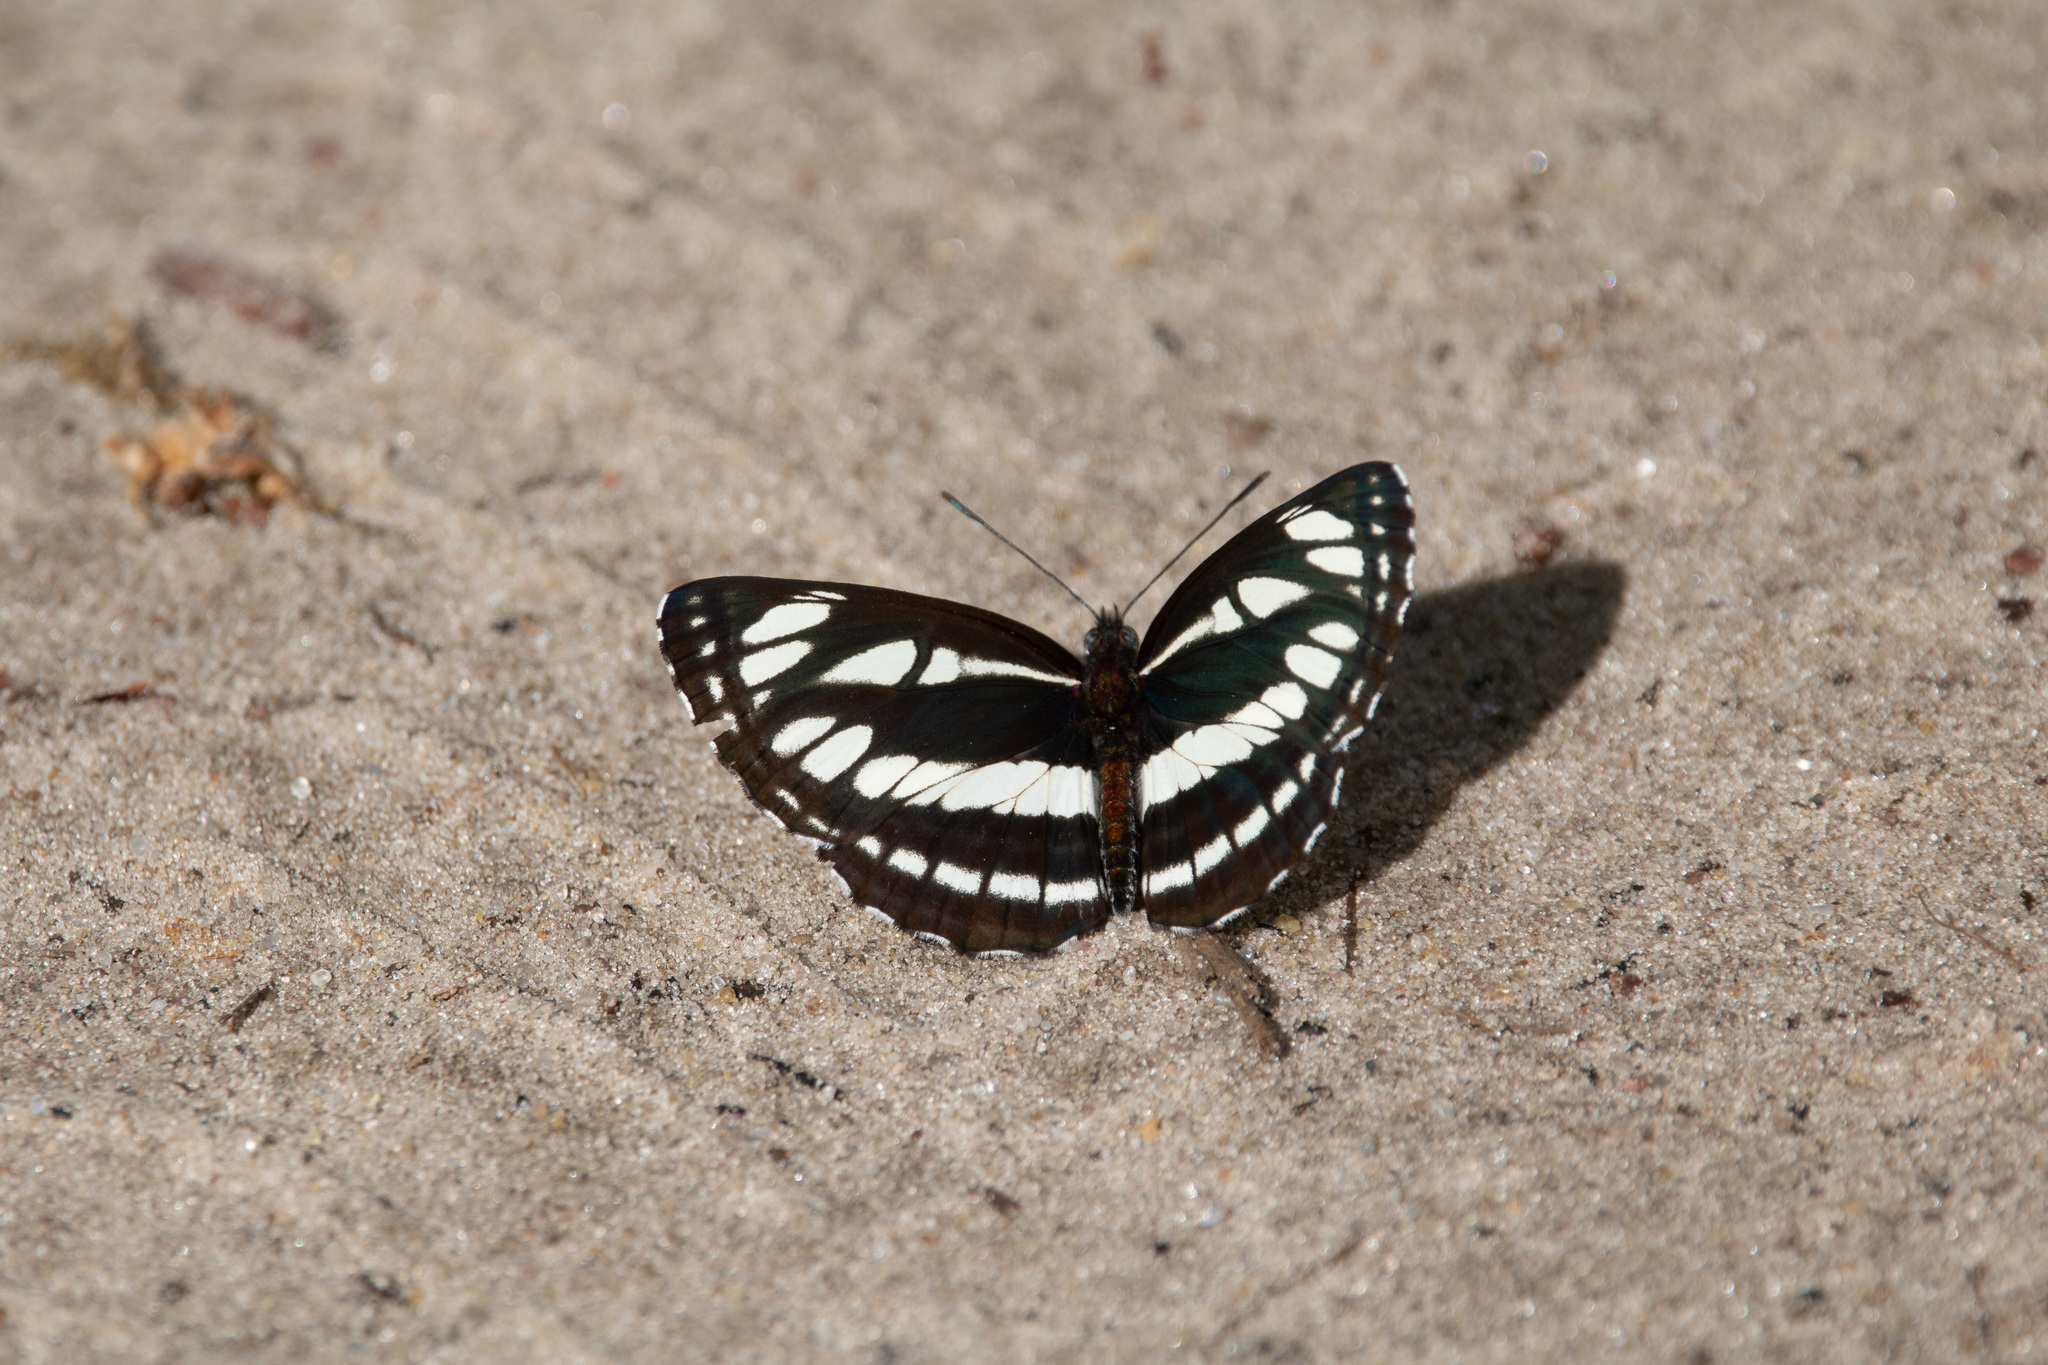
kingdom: Animalia
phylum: Arthropoda
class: Insecta
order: Lepidoptera
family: Nymphalidae
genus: Neptis
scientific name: Neptis sappho
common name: Common glider
